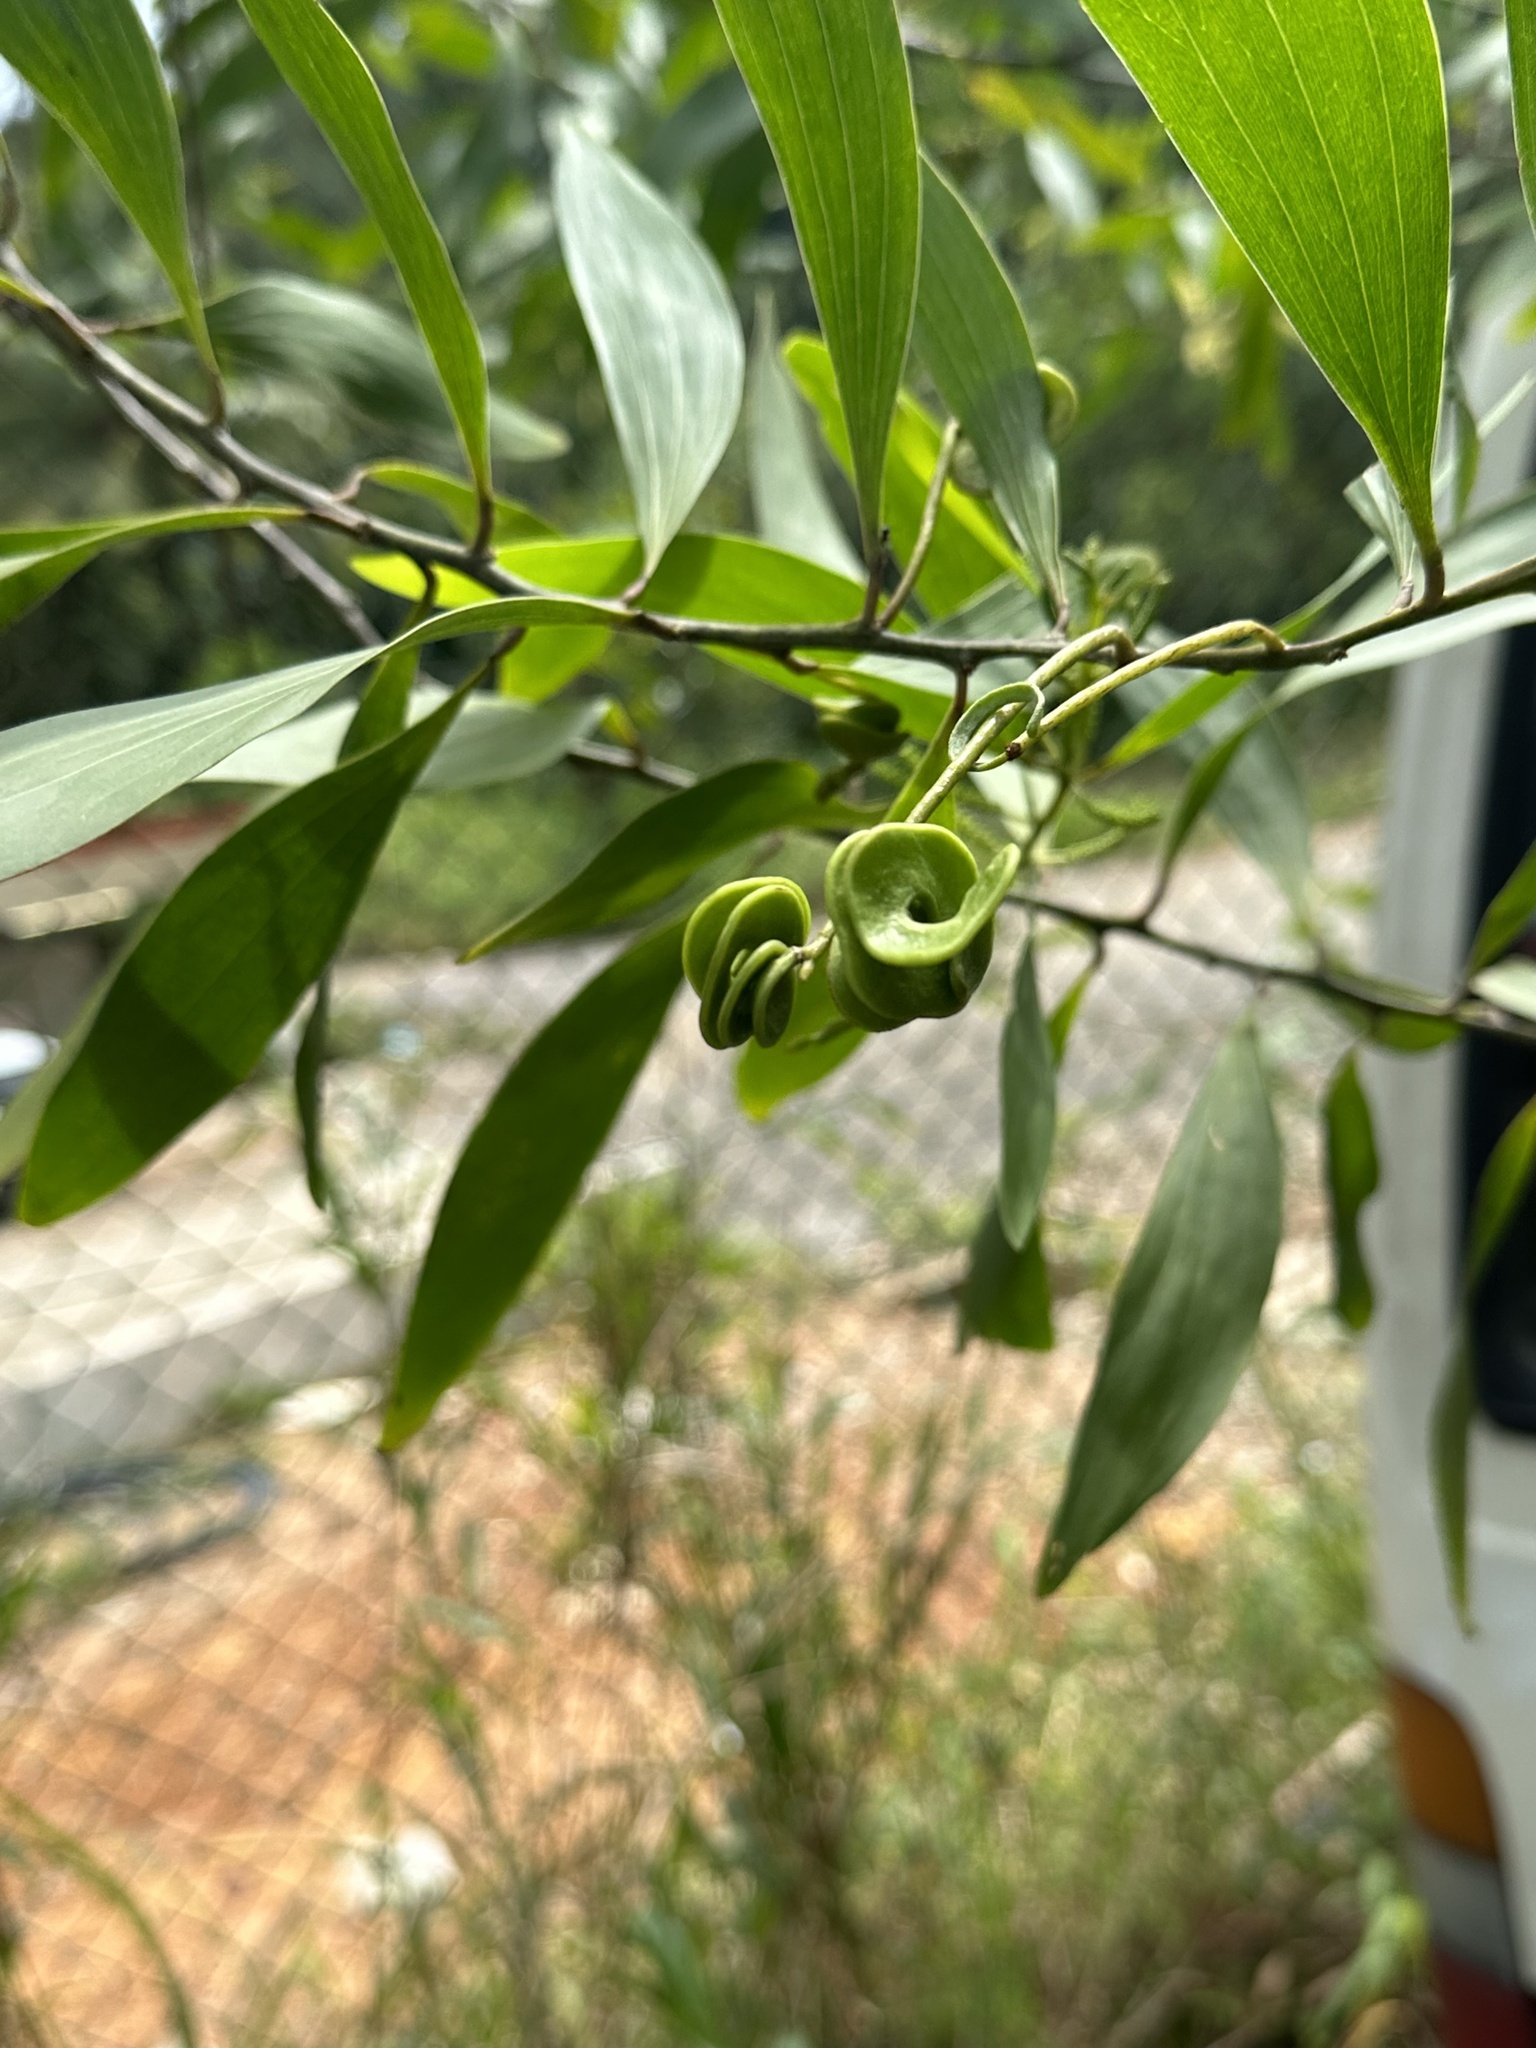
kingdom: Plantae
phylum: Tracheophyta
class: Magnoliopsida
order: Fabales
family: Fabaceae
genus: Acacia
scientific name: Acacia auriculiformis
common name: Earleaf acacia
